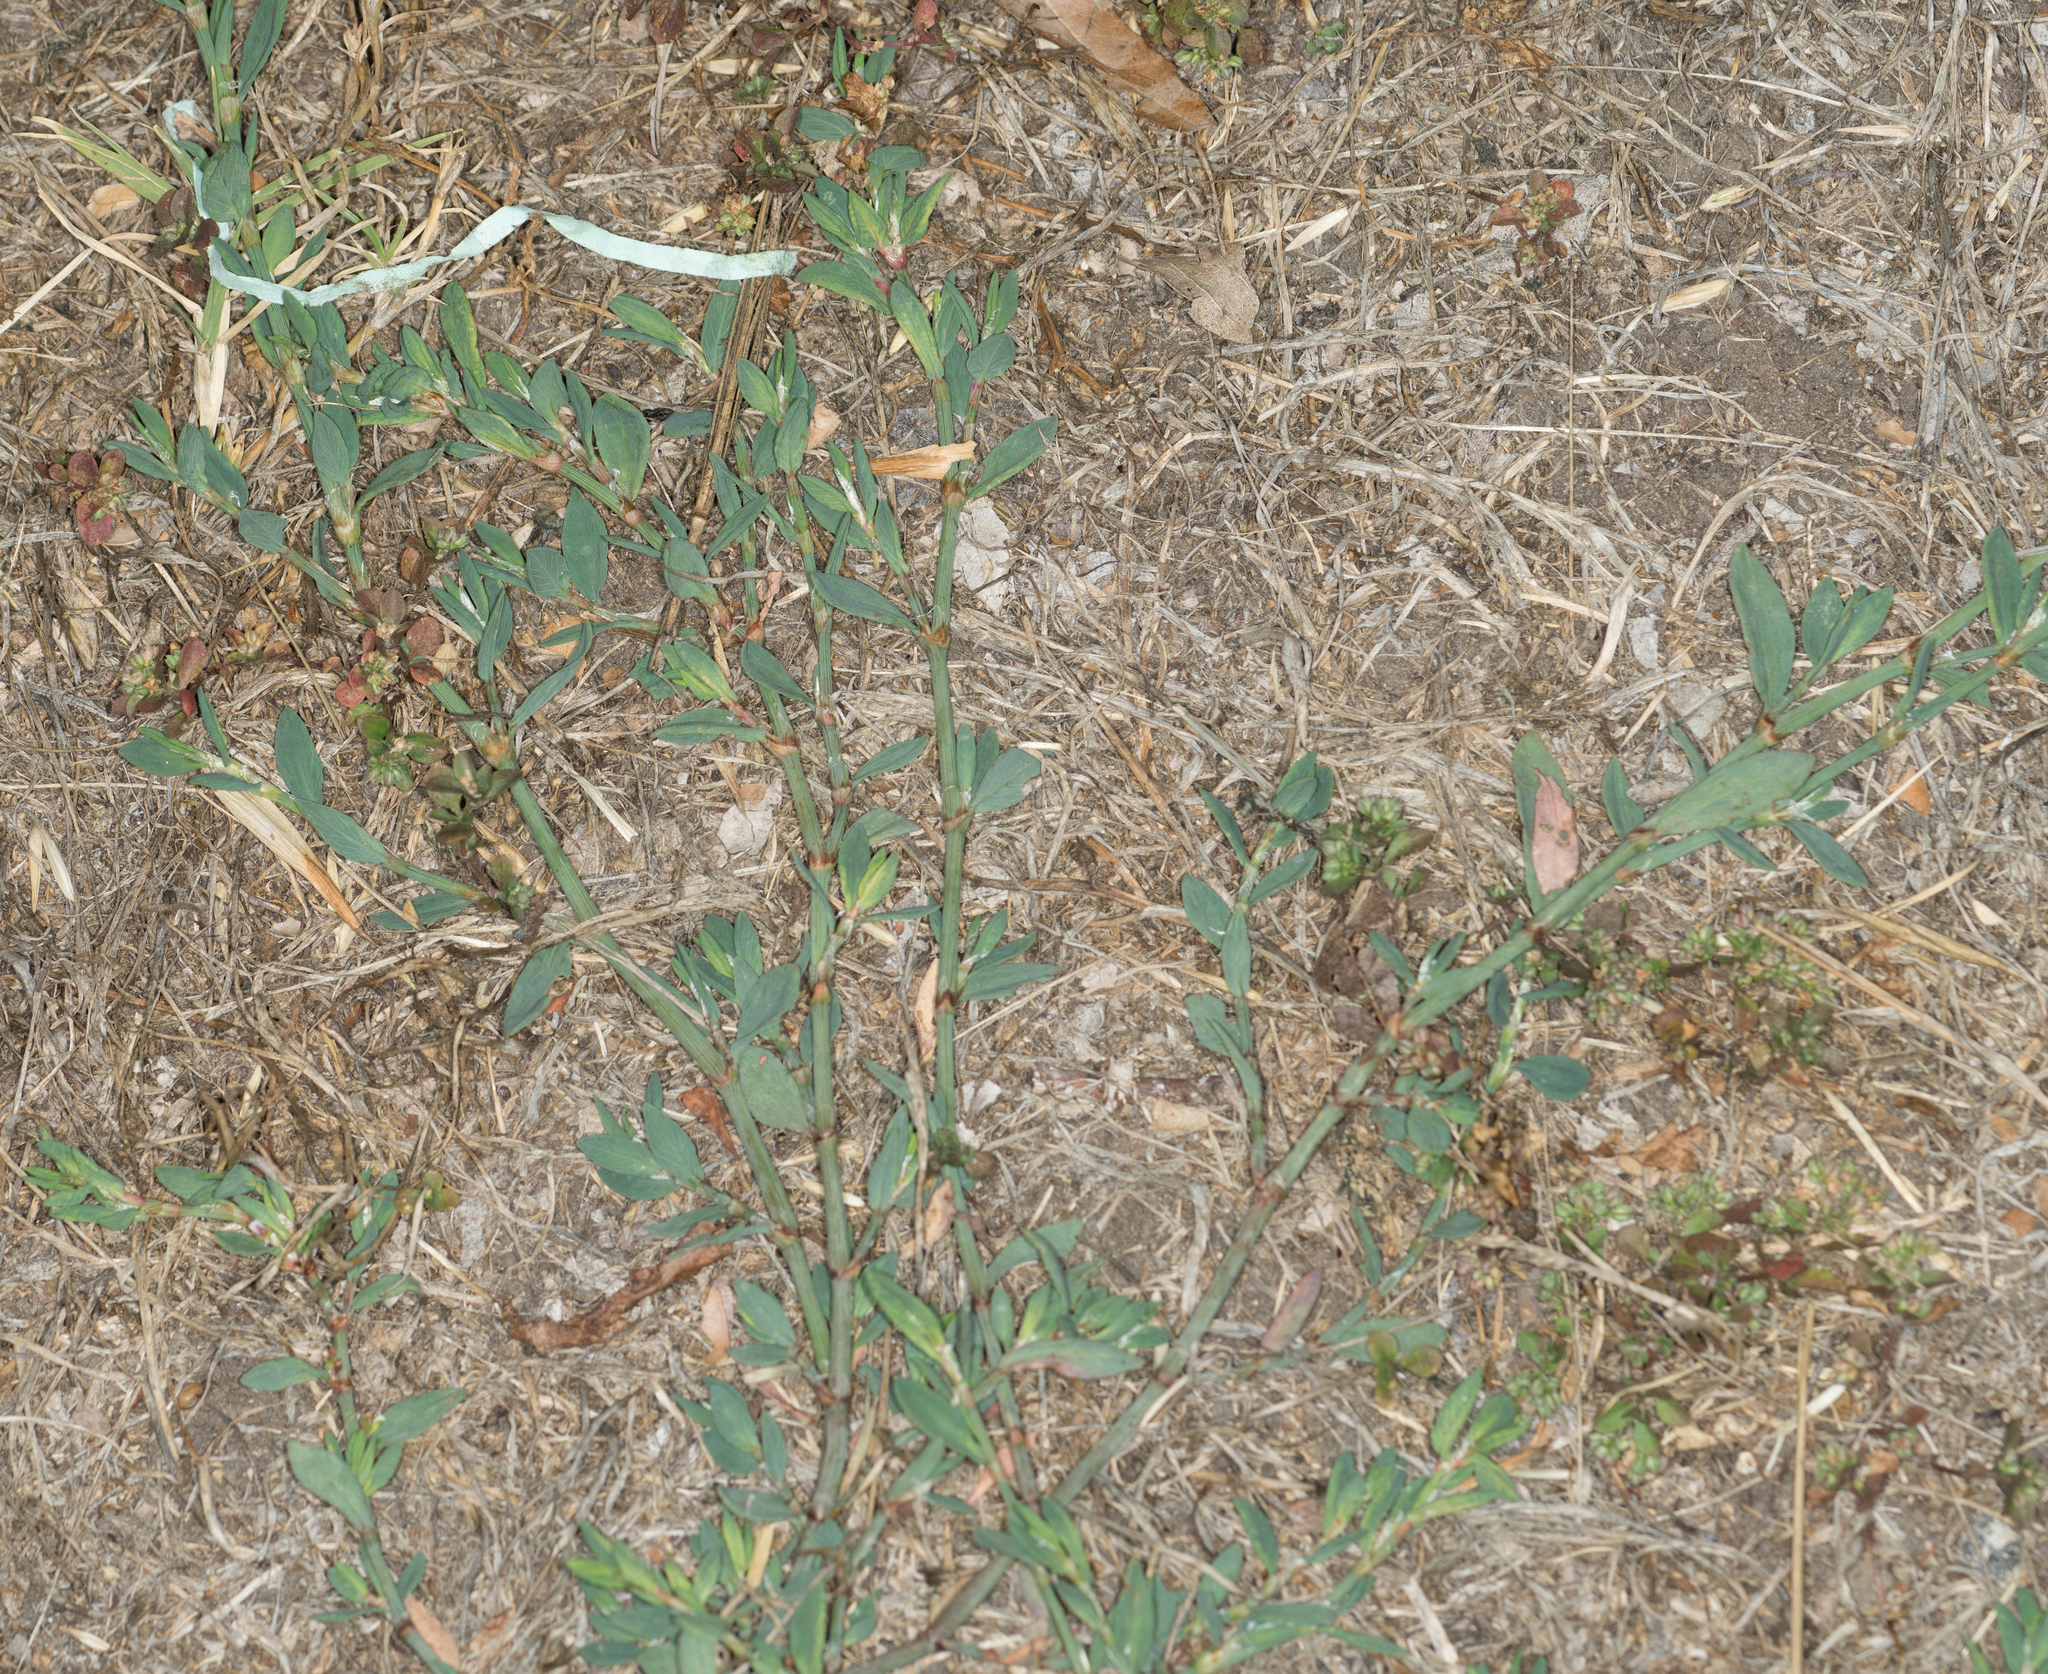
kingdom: Plantae
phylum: Tracheophyta
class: Magnoliopsida
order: Caryophyllales
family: Polygonaceae
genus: Polygonum
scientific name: Polygonum aviculare
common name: Prostrate knotweed
